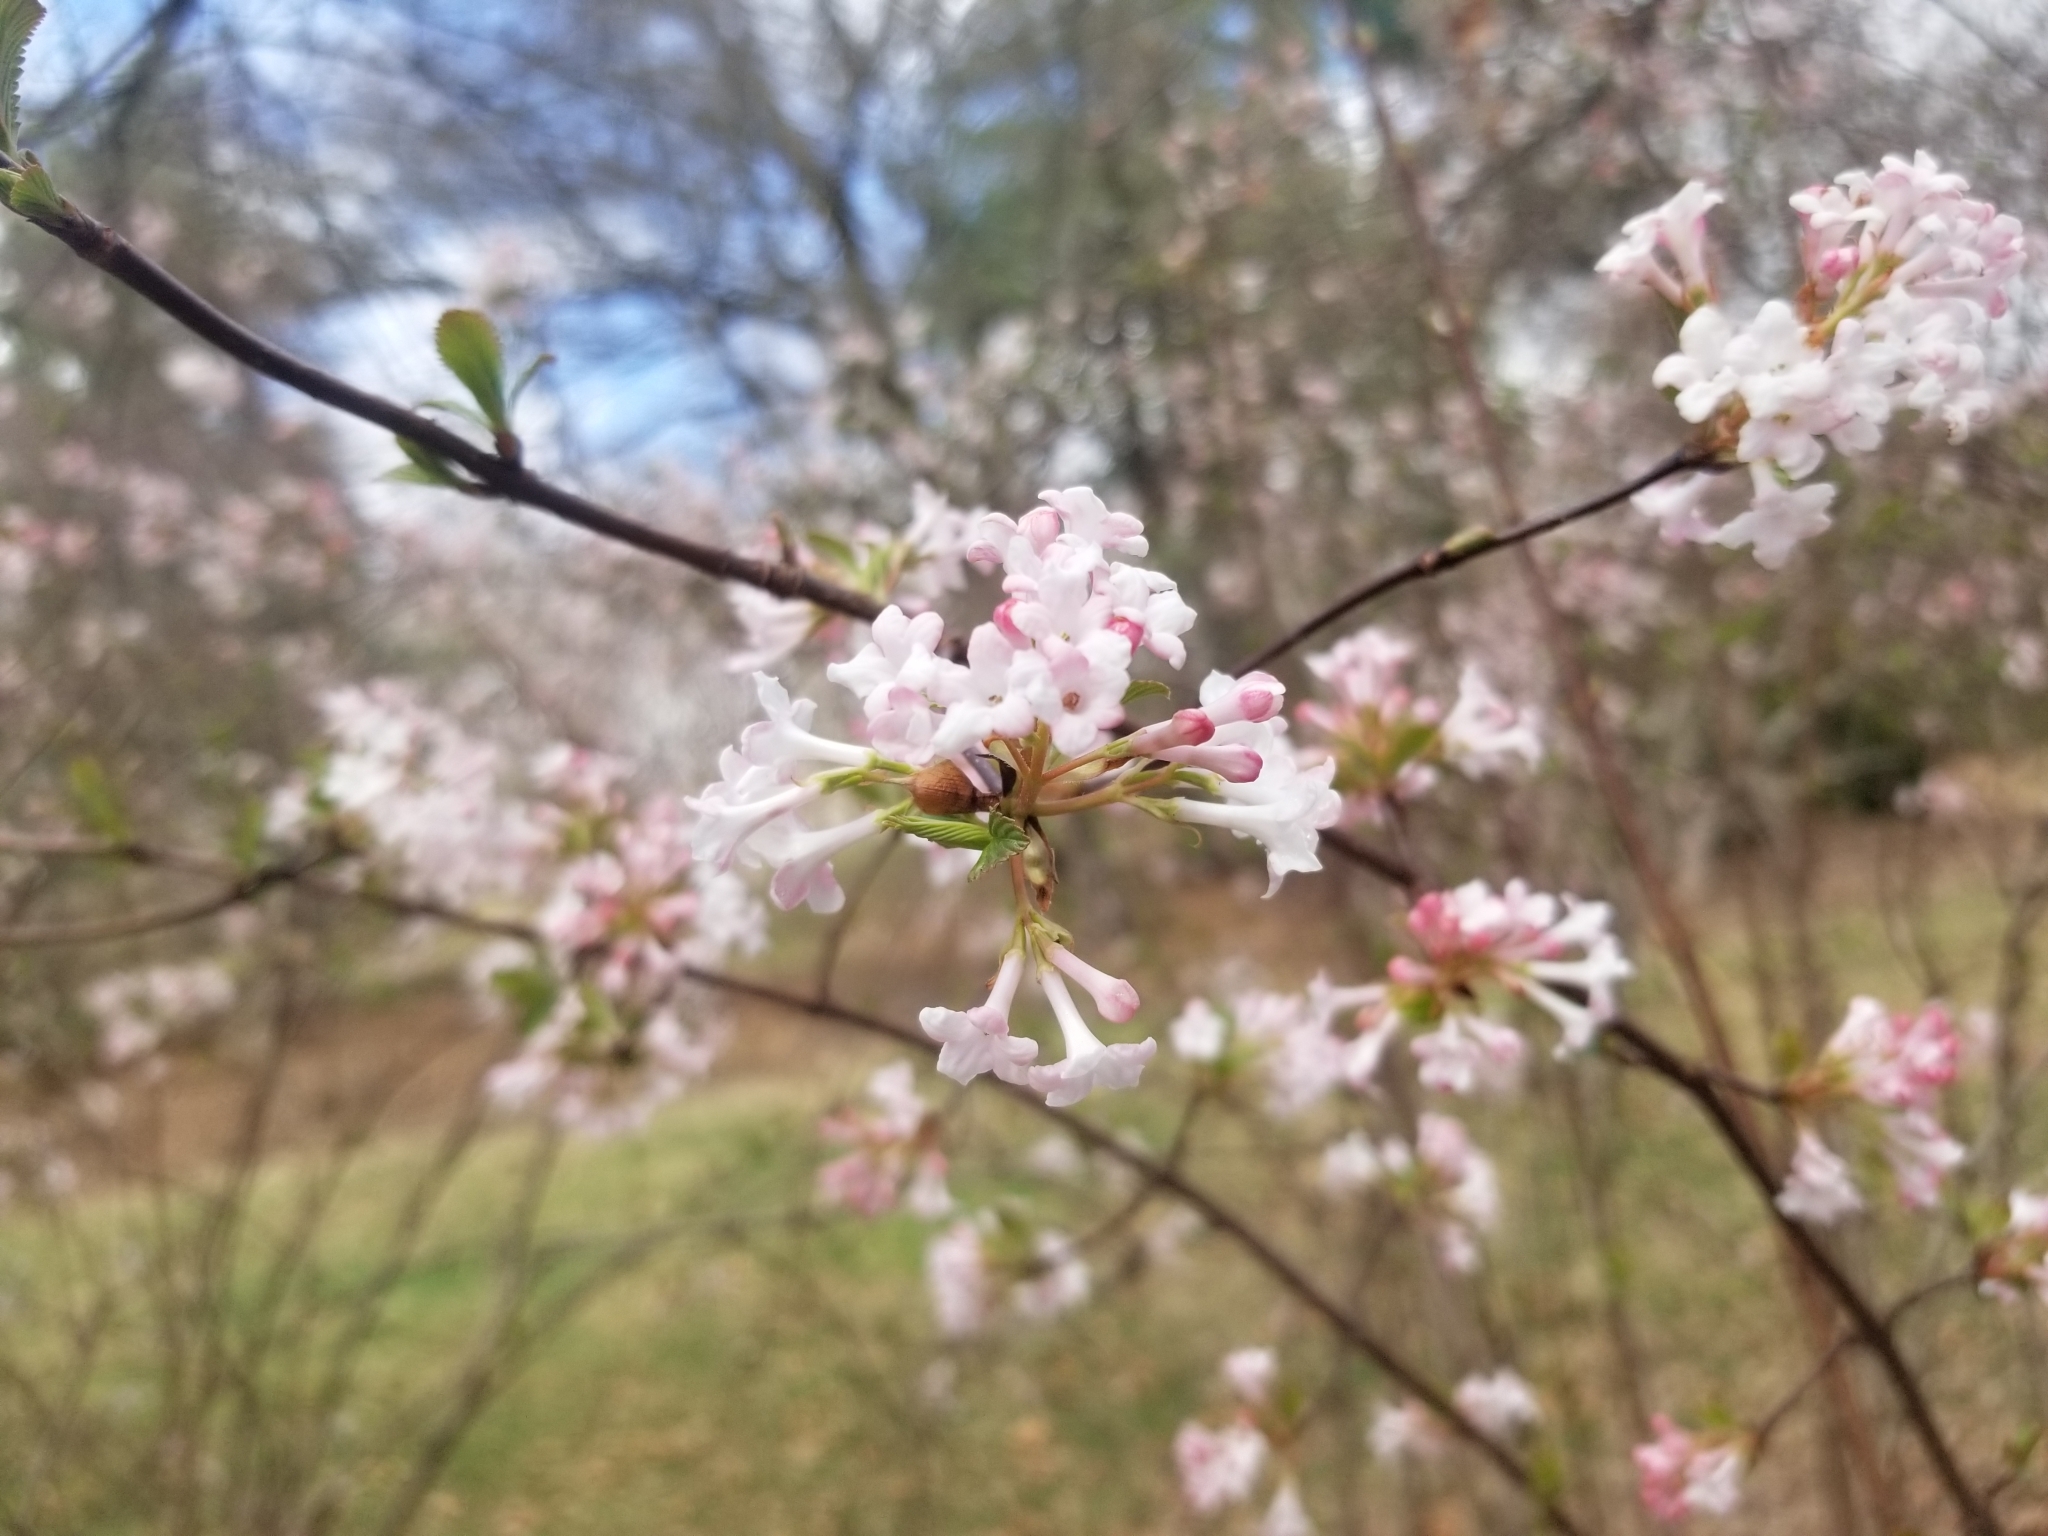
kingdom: Plantae
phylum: Tracheophyta
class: Magnoliopsida
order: Dipsacales
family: Viburnaceae
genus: Viburnum
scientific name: Viburnum carlesii
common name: Koreanspice viburnum
